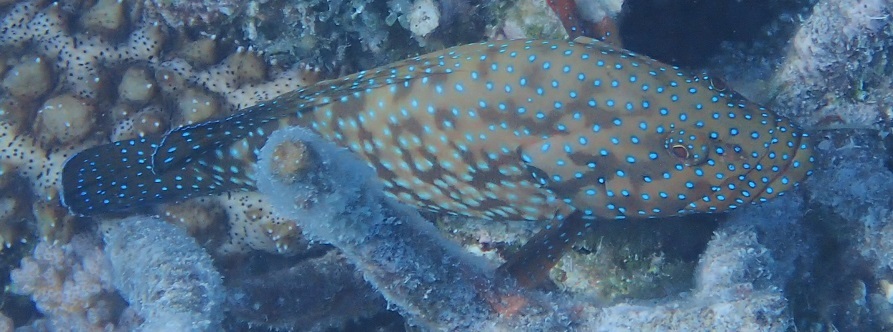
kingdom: Animalia
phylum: Chordata
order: Perciformes
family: Serranidae
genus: Cephalopholis
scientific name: Cephalopholis cyanostigma
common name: Bluespotted hind
